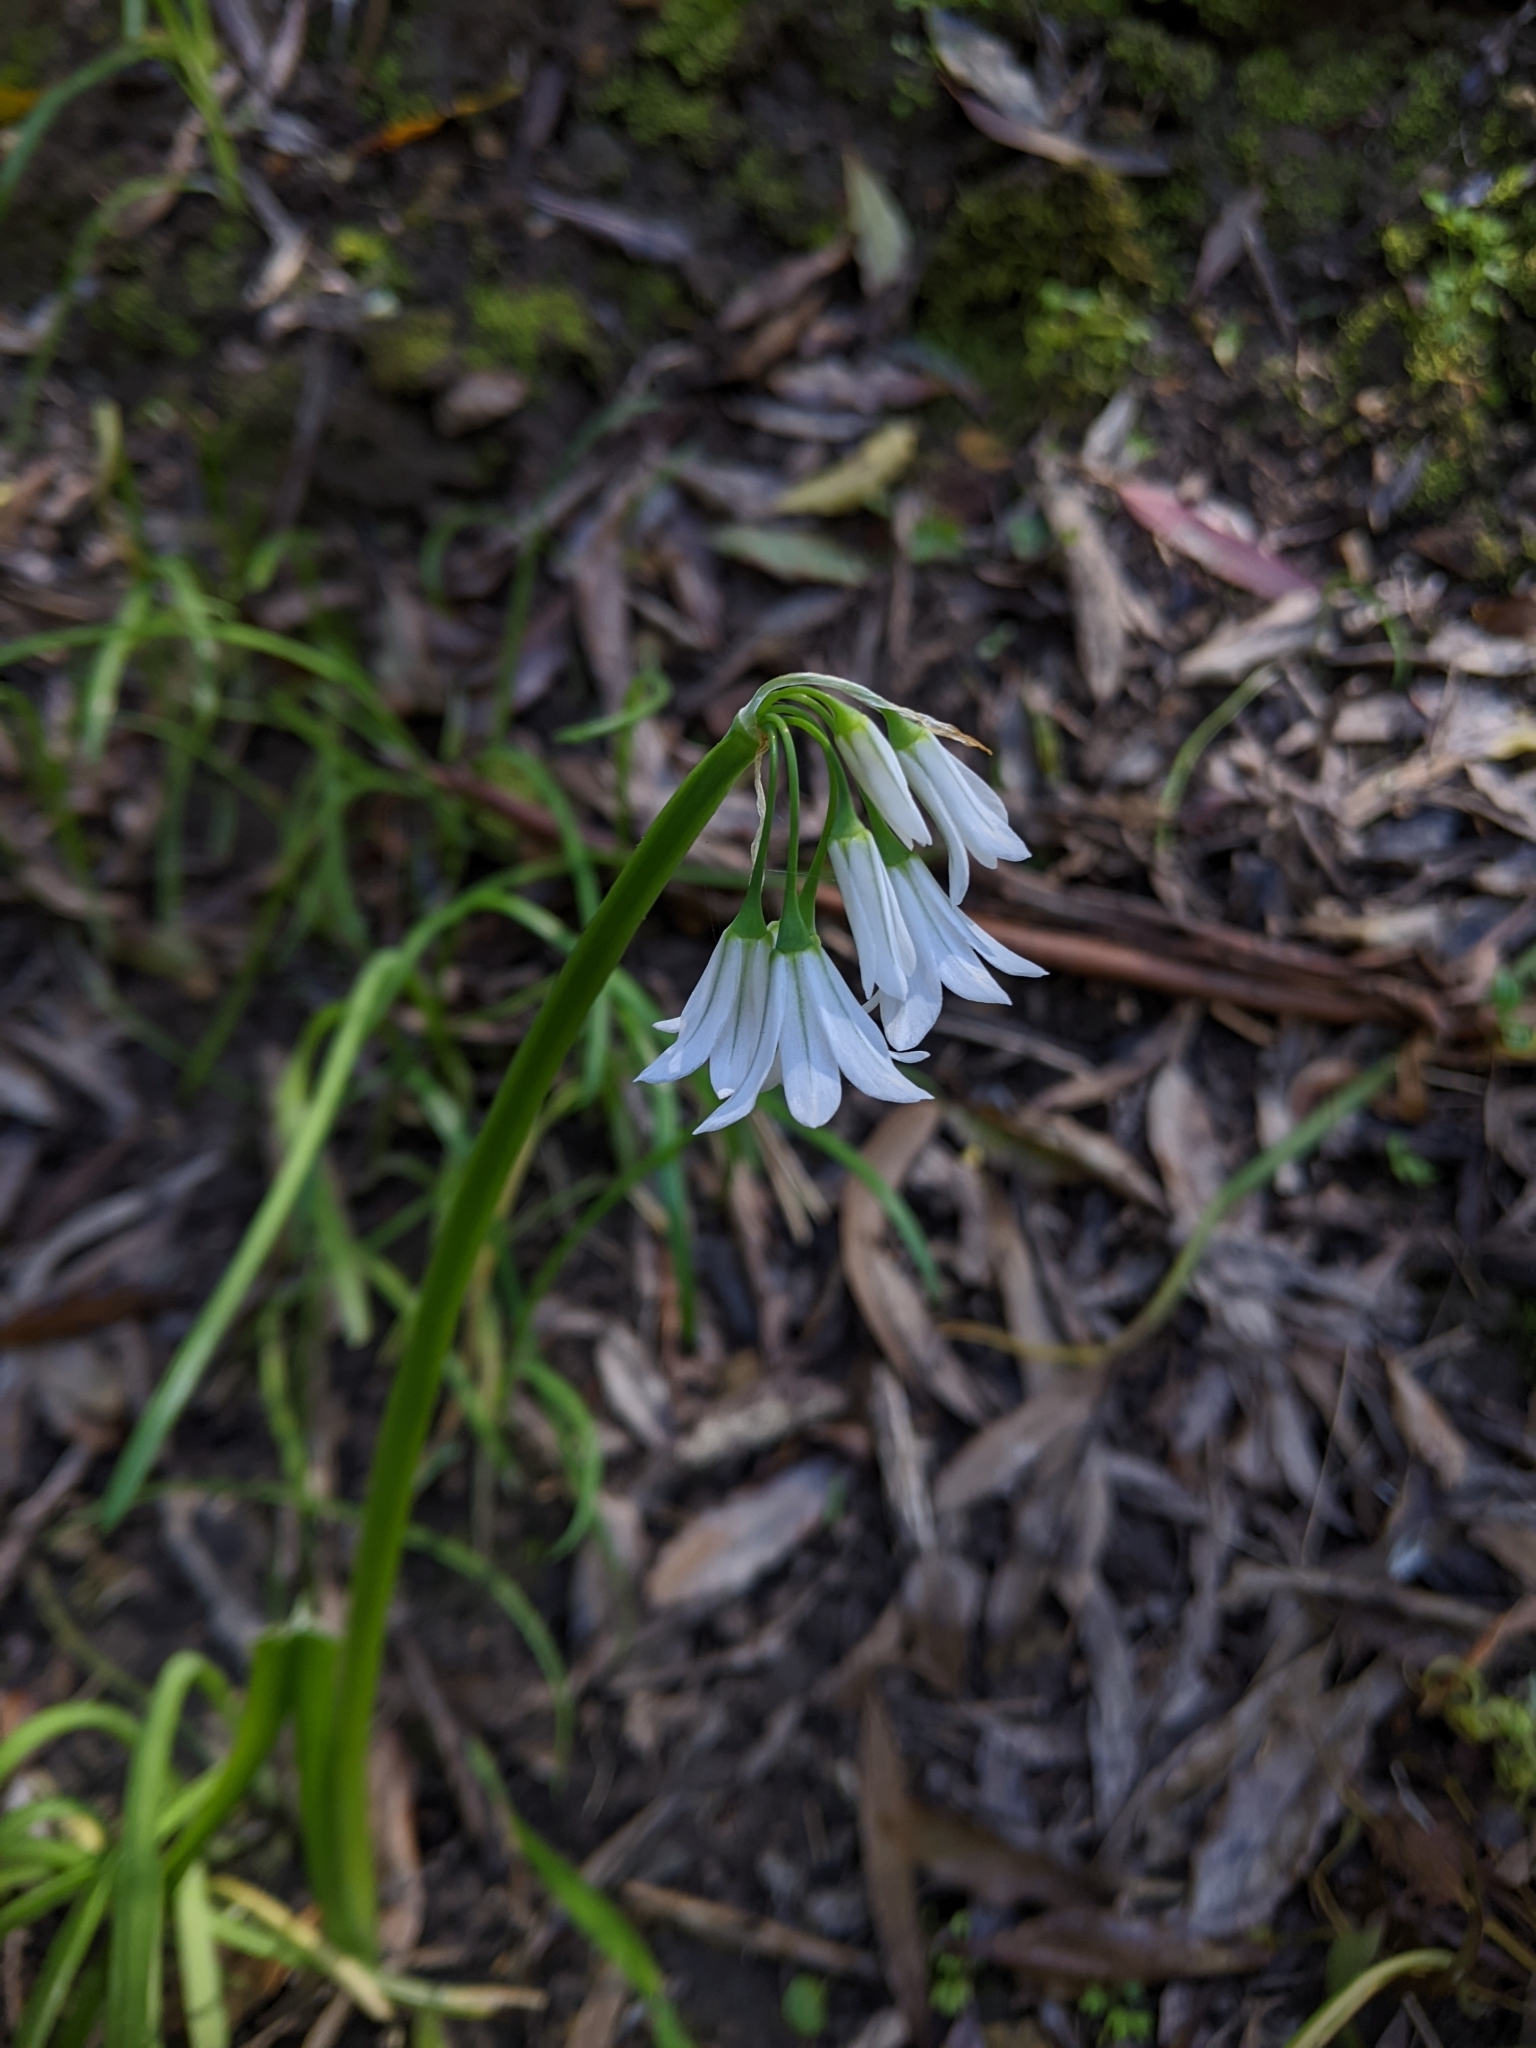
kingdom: Plantae
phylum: Tracheophyta
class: Liliopsida
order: Asparagales
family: Amaryllidaceae
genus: Allium
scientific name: Allium triquetrum
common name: Three-cornered garlic
